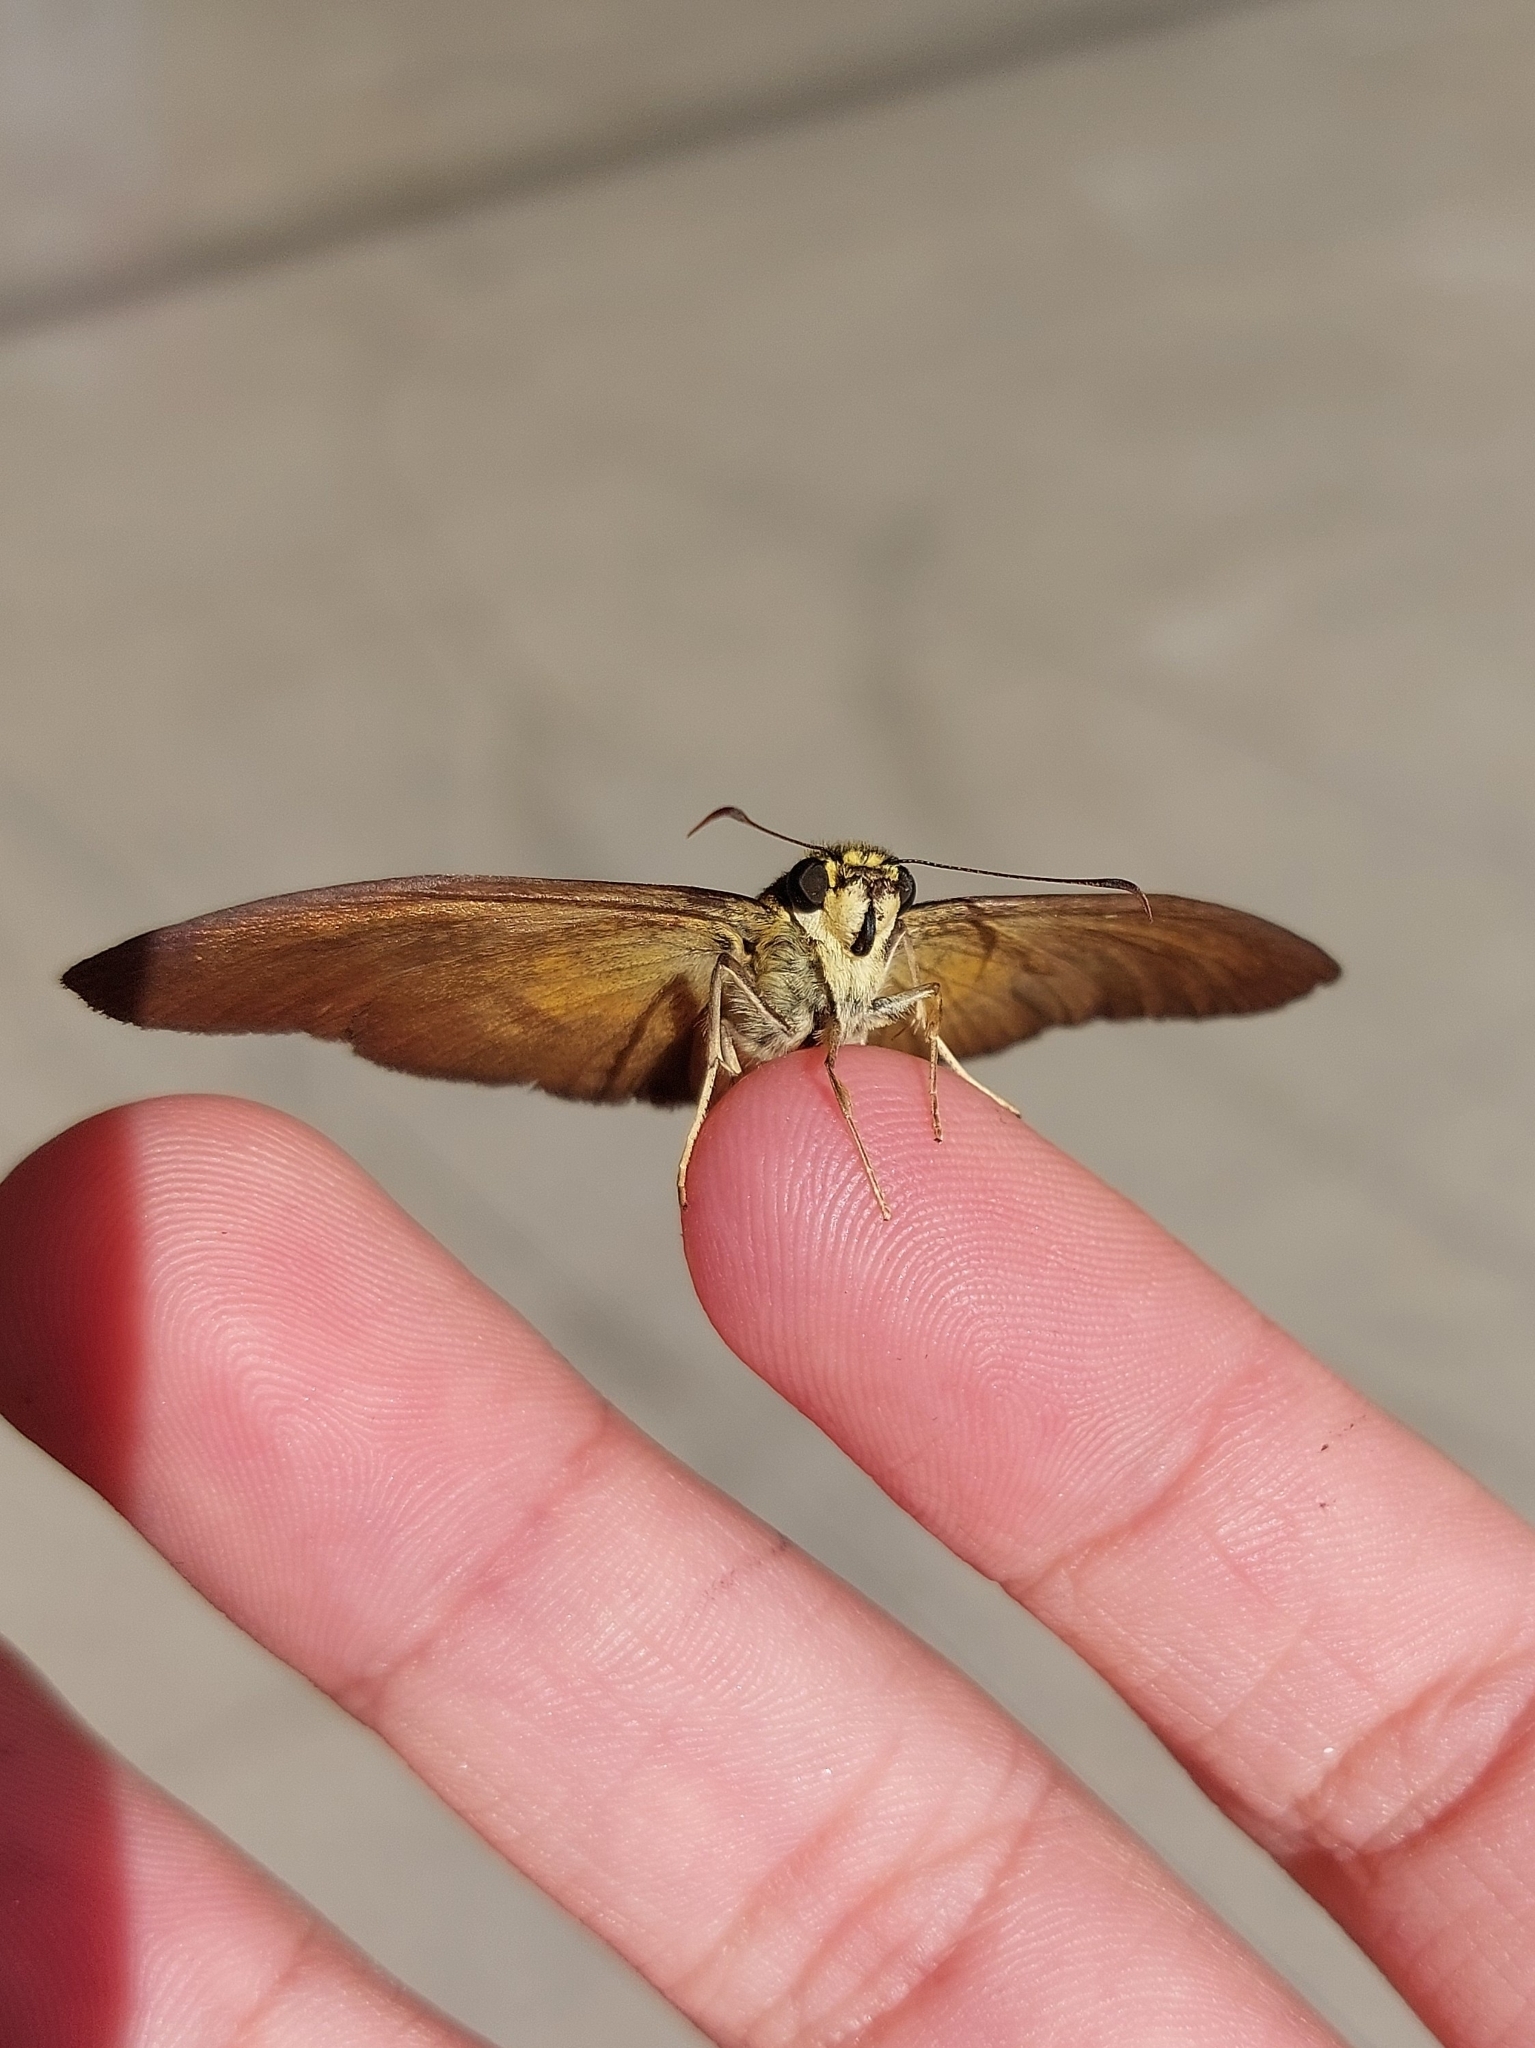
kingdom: Animalia
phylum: Arthropoda
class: Insecta
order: Lepidoptera
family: Hesperiidae
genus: Augiades
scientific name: Augiades vespasius
